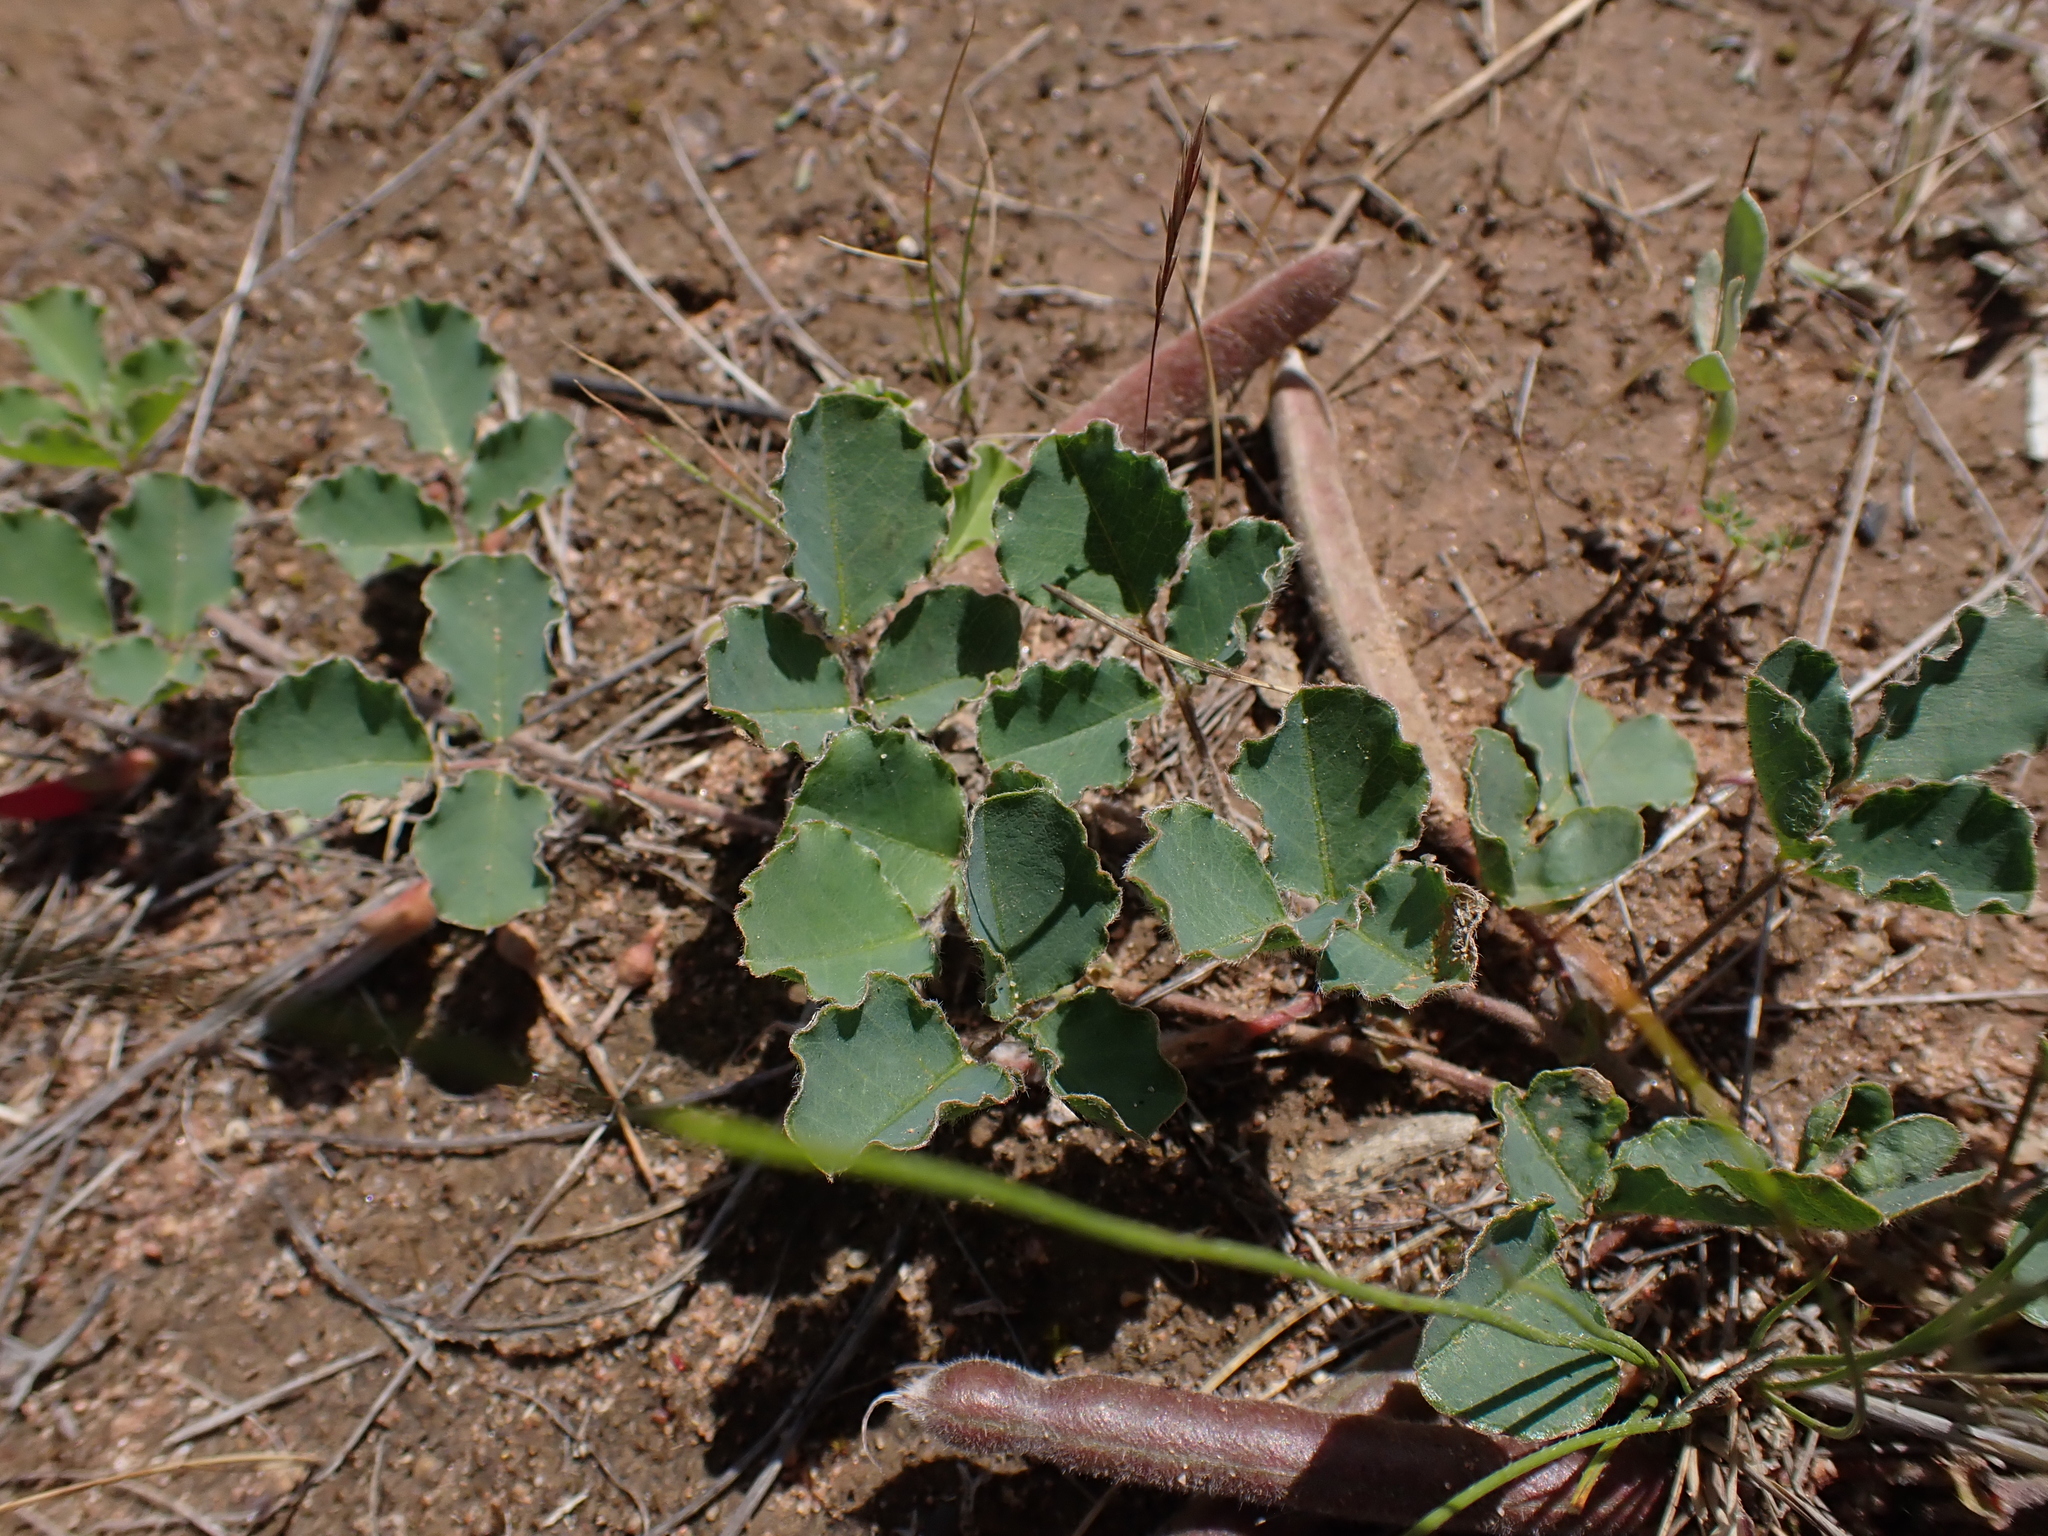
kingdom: Plantae
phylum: Tracheophyta
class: Magnoliopsida
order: Fabales
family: Fabaceae
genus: Kennedia
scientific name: Kennedia prostrata
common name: Running-postman
